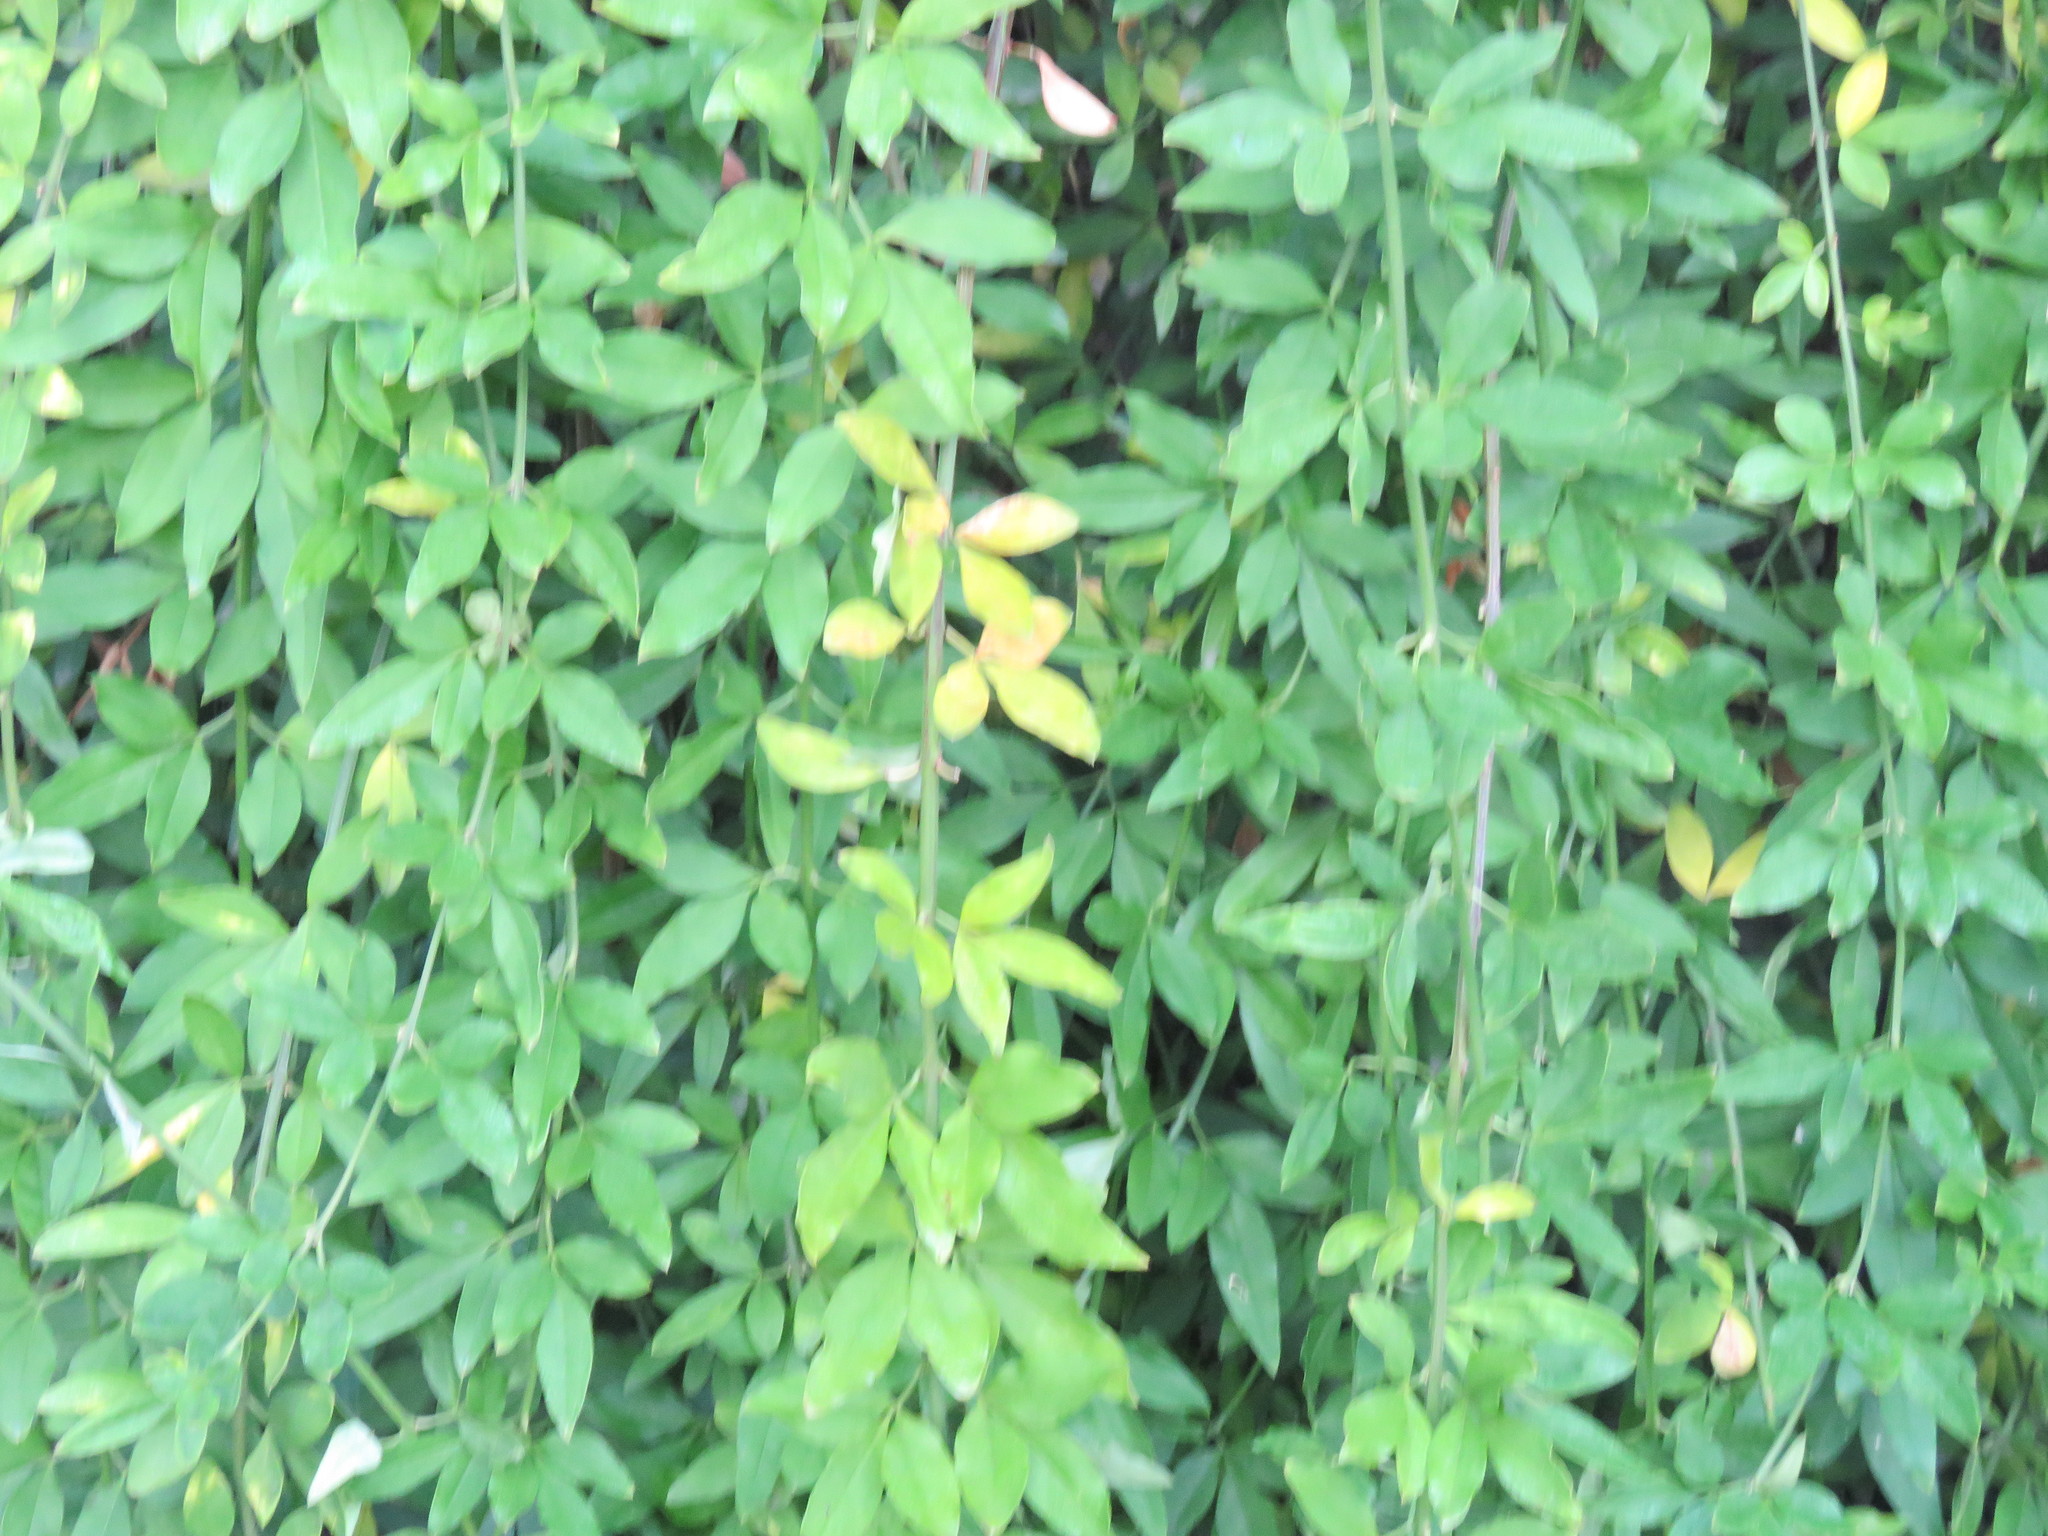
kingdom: Plantae
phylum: Tracheophyta
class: Magnoliopsida
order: Lamiales
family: Oleaceae
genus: Jasminum
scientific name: Jasminum mesnyi
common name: Japanese jasmine
